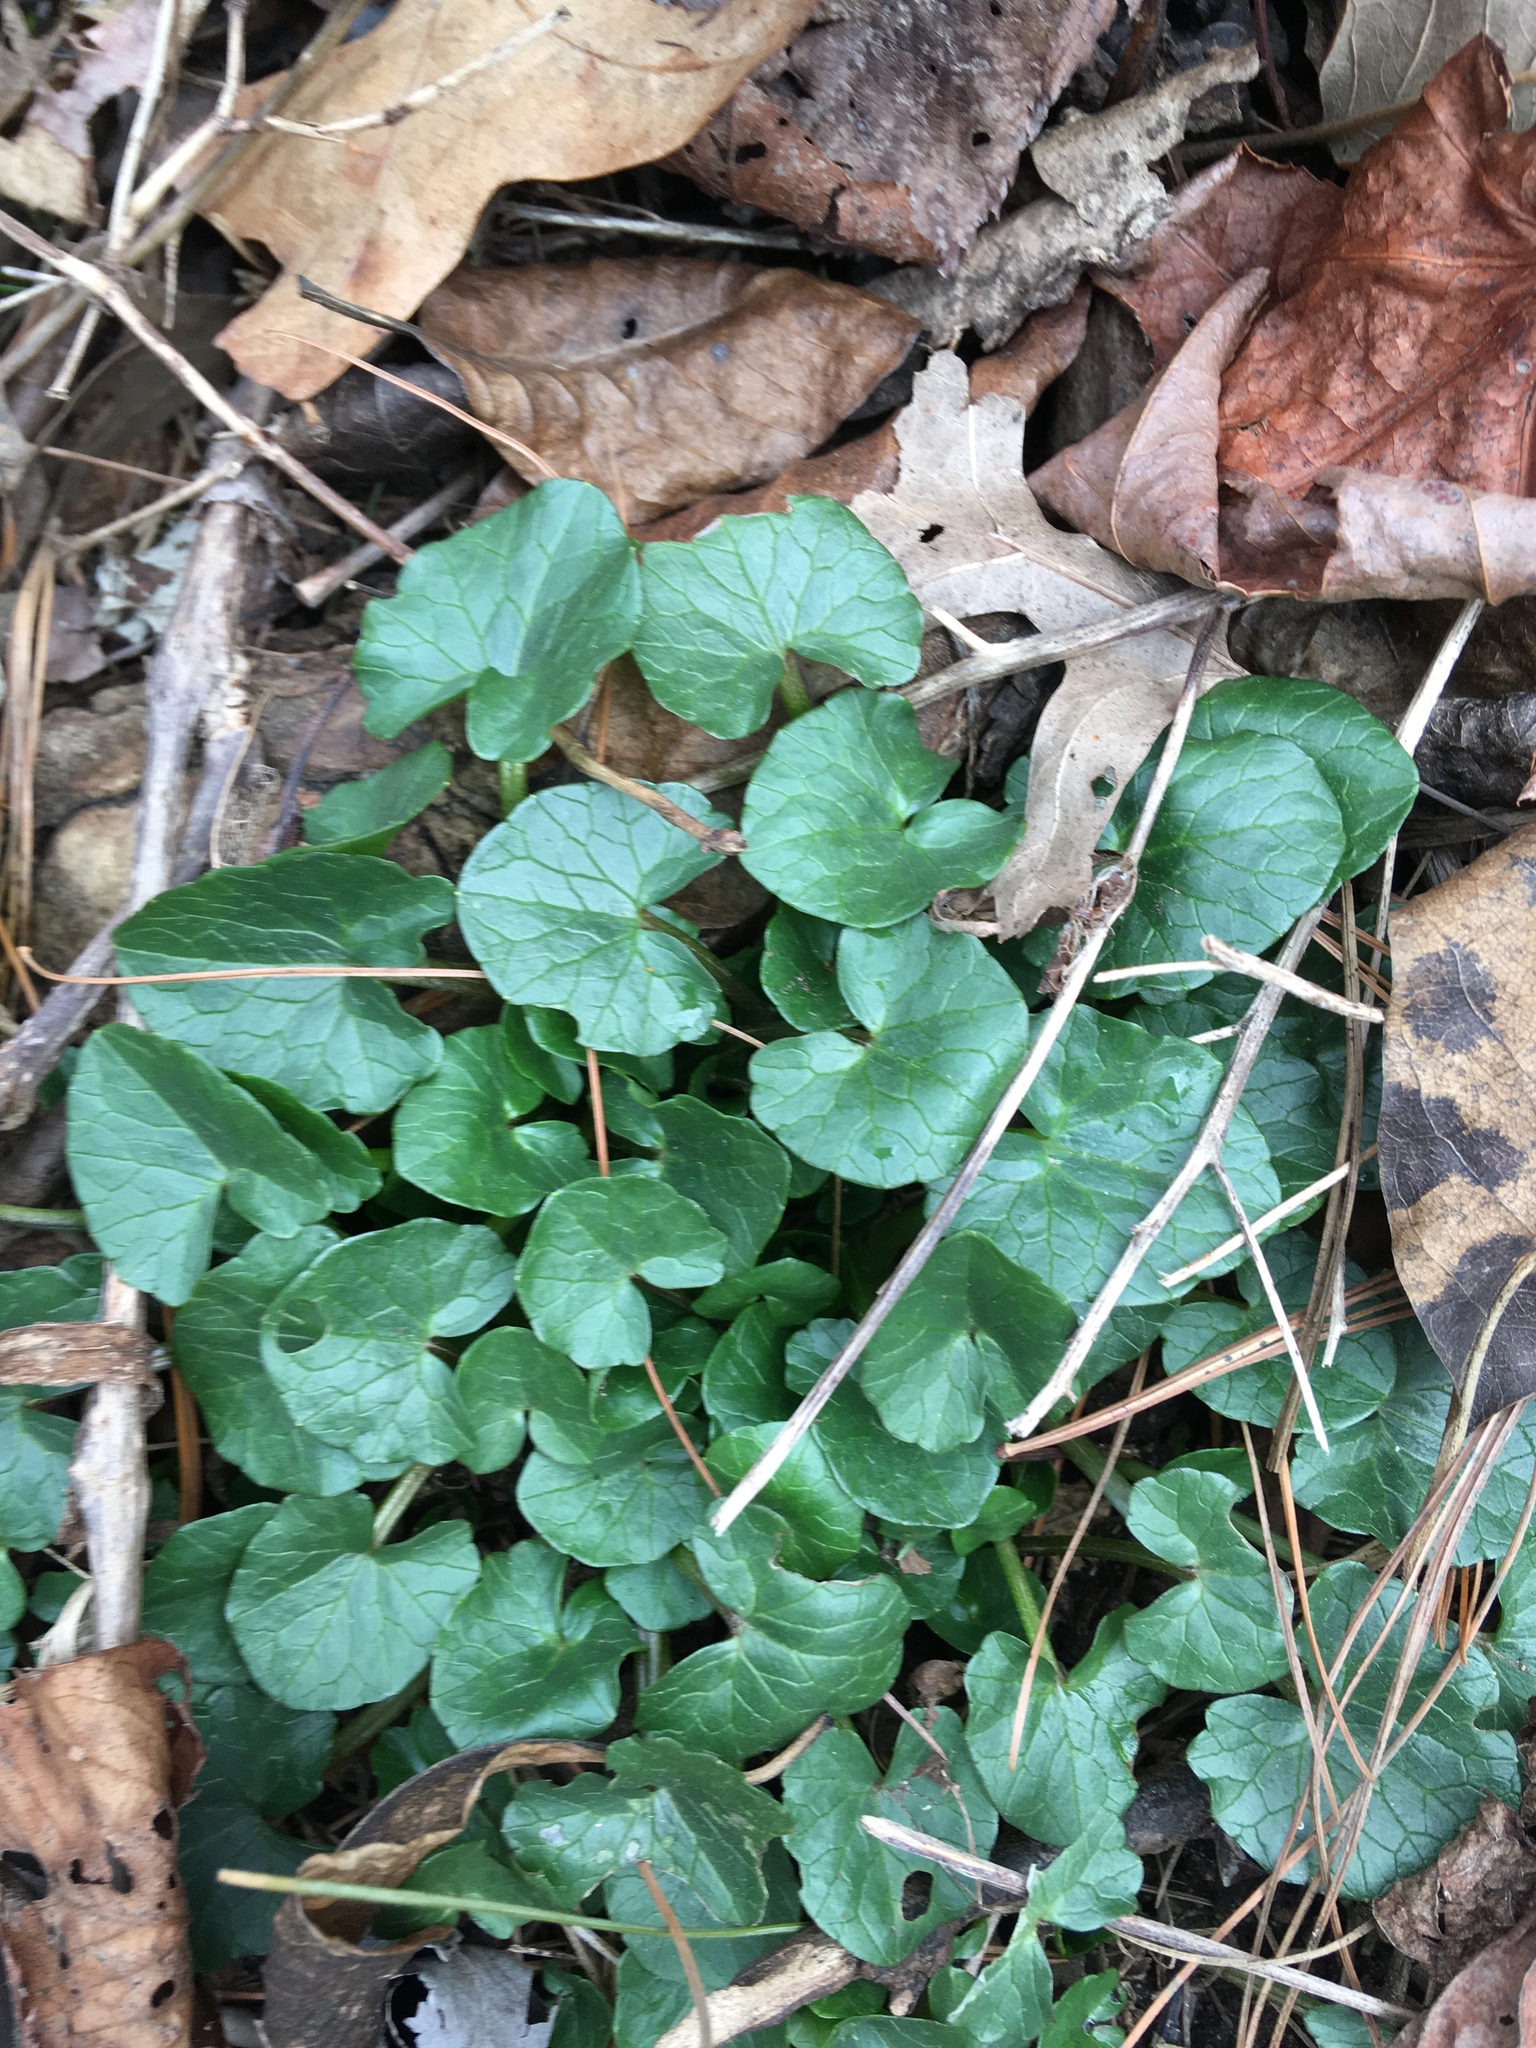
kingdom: Plantae
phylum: Tracheophyta
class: Magnoliopsida
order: Ranunculales
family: Ranunculaceae
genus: Ficaria
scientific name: Ficaria verna
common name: Lesser celandine
